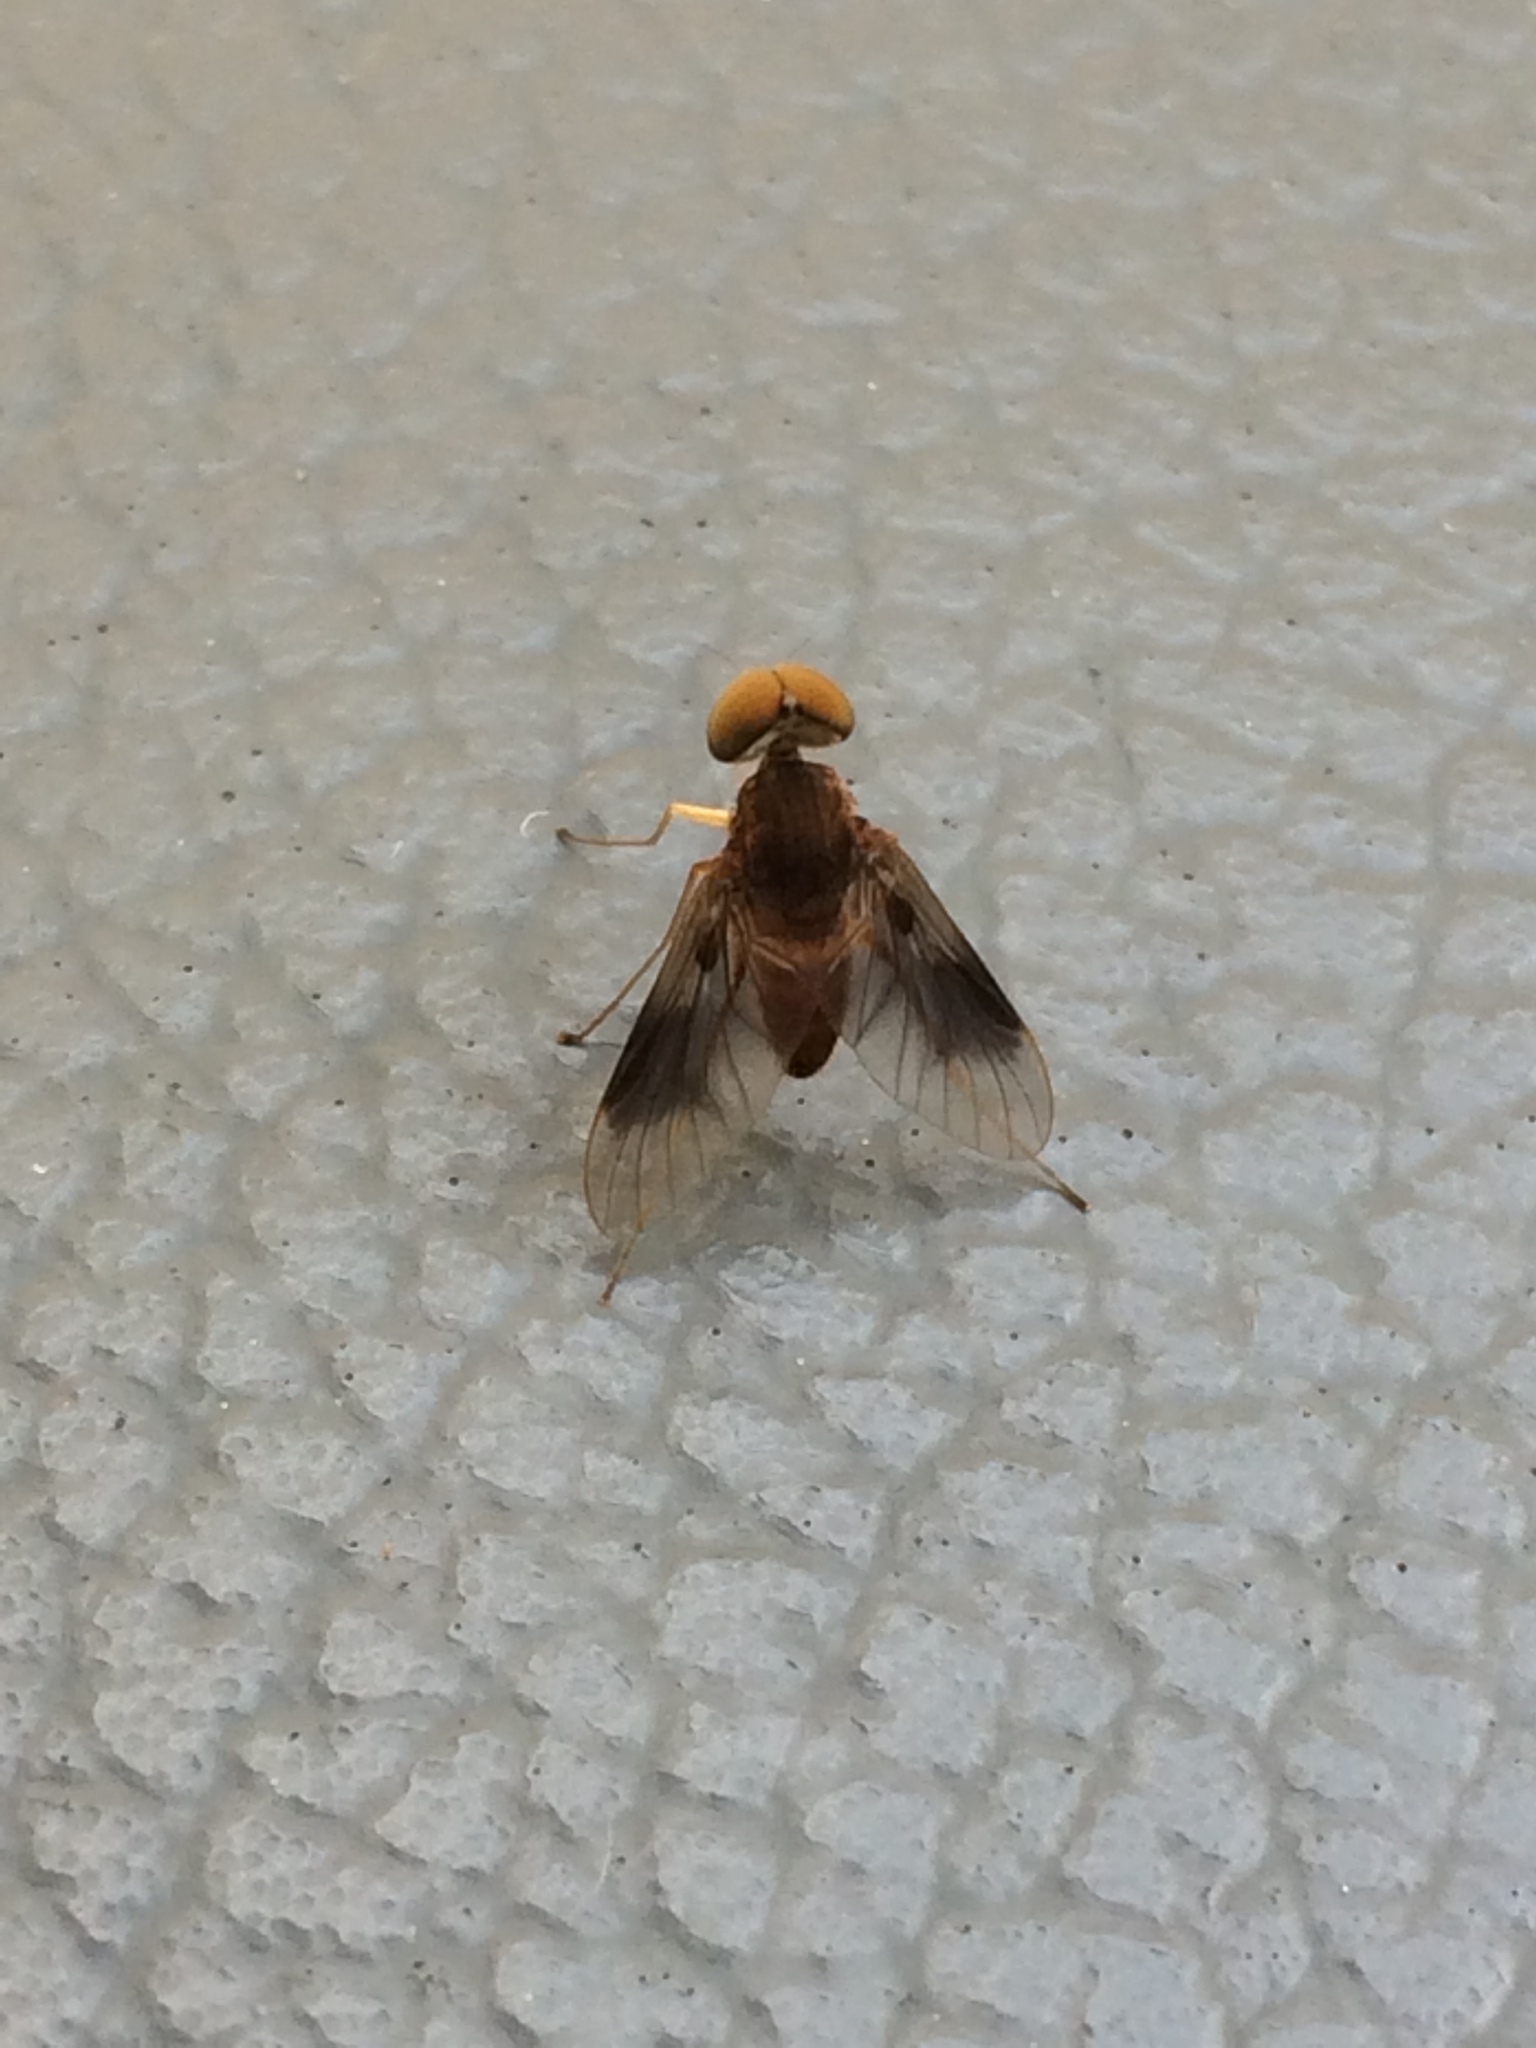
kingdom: Animalia
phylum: Arthropoda
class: Insecta
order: Diptera
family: Rhagionidae
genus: Chrysopilus
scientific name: Chrysopilus quadratus
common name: Quadrate snipe fly
